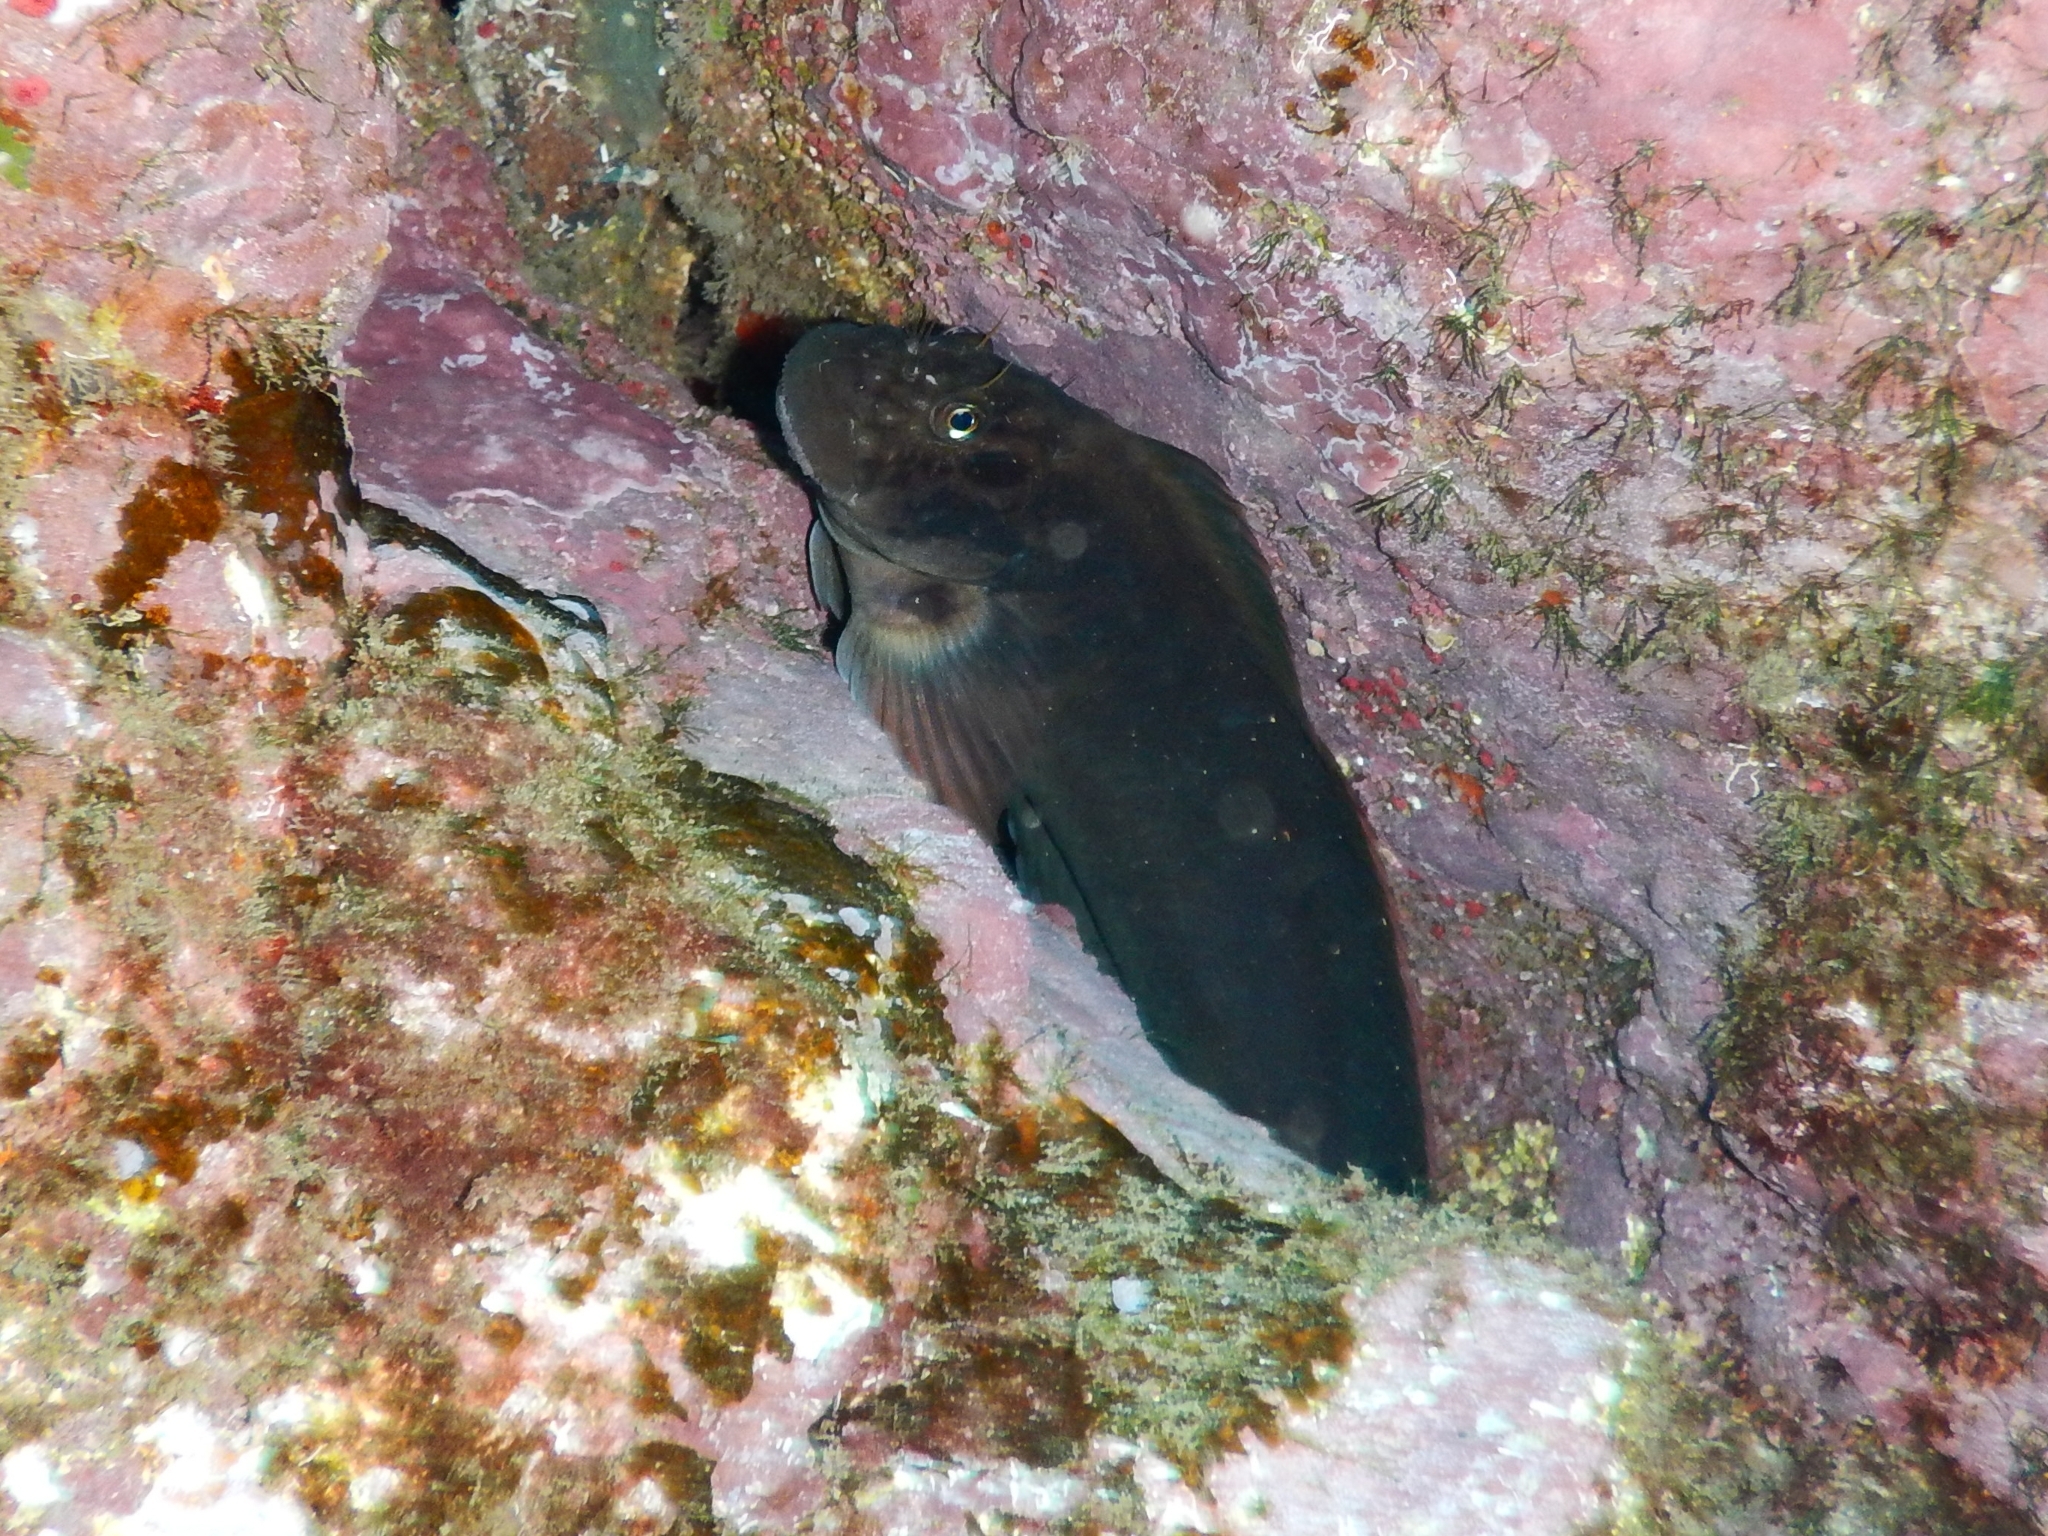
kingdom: Animalia
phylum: Chordata
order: Perciformes
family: Blenniidae
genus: Ophioblennius
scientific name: Ophioblennius atlanticus
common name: Redlip blenny
